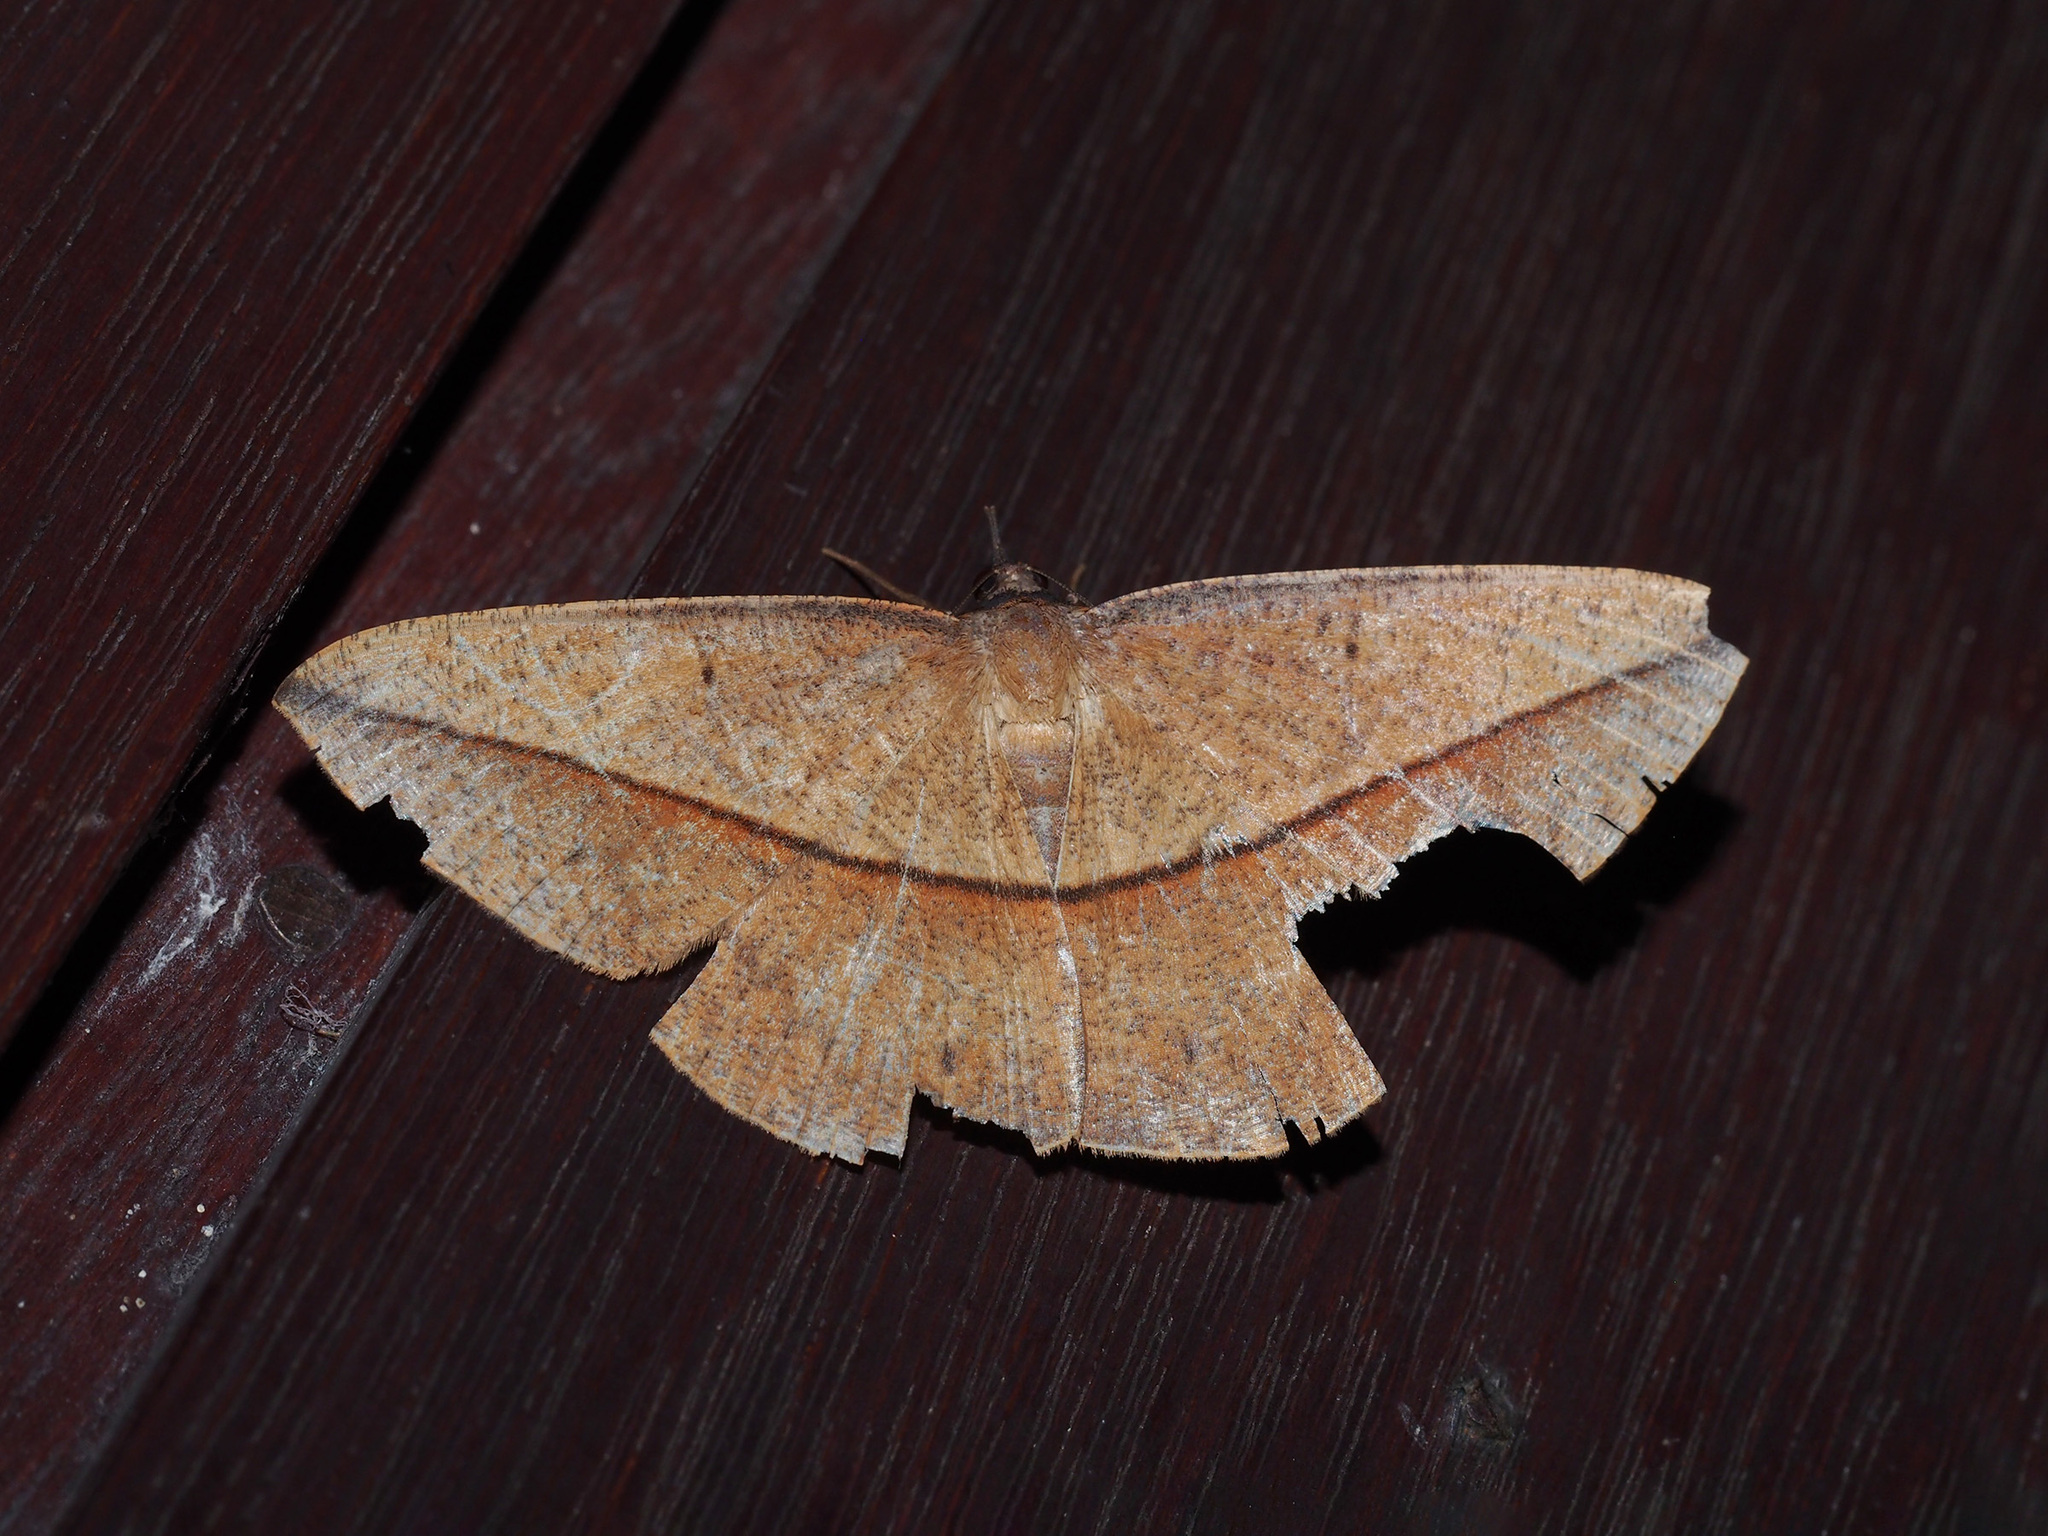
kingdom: Animalia
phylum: Arthropoda
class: Insecta
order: Lepidoptera
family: Geometridae
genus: Alex
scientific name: Alex palparia
